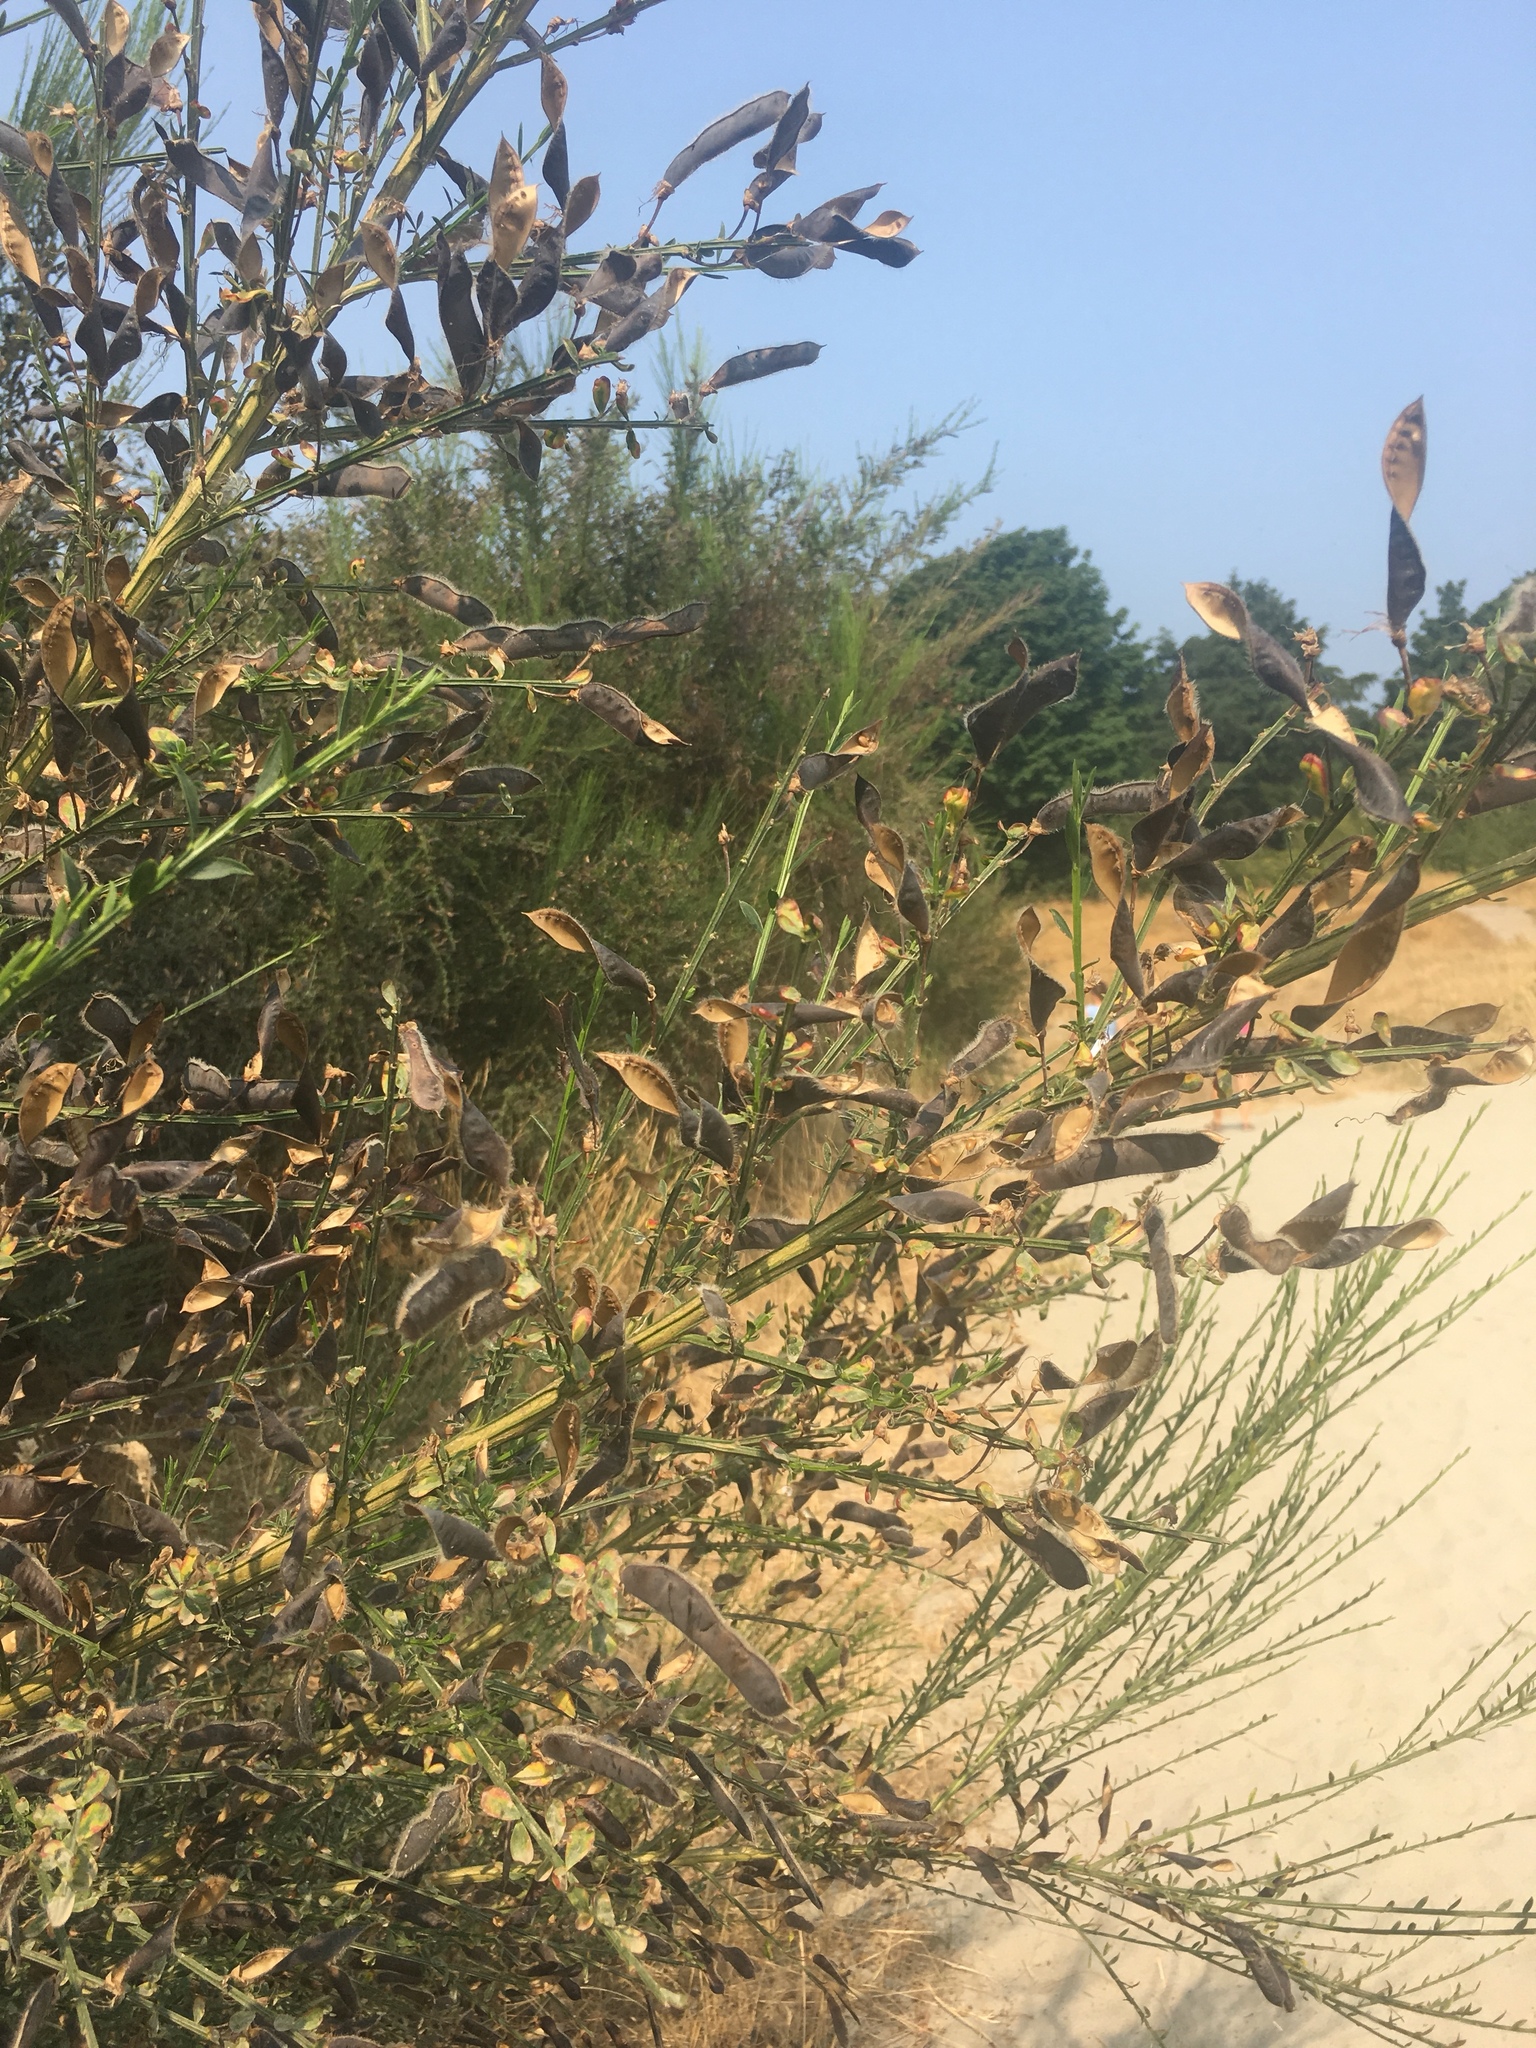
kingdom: Plantae
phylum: Tracheophyta
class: Magnoliopsida
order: Fabales
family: Fabaceae
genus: Cytisus
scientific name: Cytisus scoparius
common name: Scotch broom
